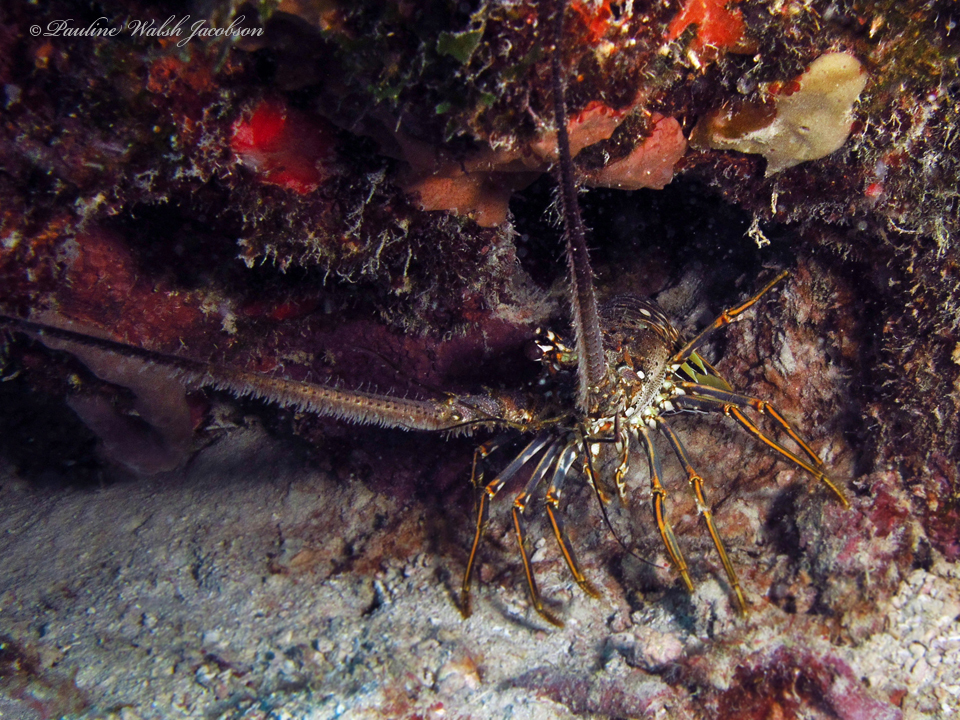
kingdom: Animalia
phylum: Arthropoda
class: Malacostraca
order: Decapoda
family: Palinuridae
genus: Panulirus
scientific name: Panulirus argus
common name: Caribbean spiny lobster
